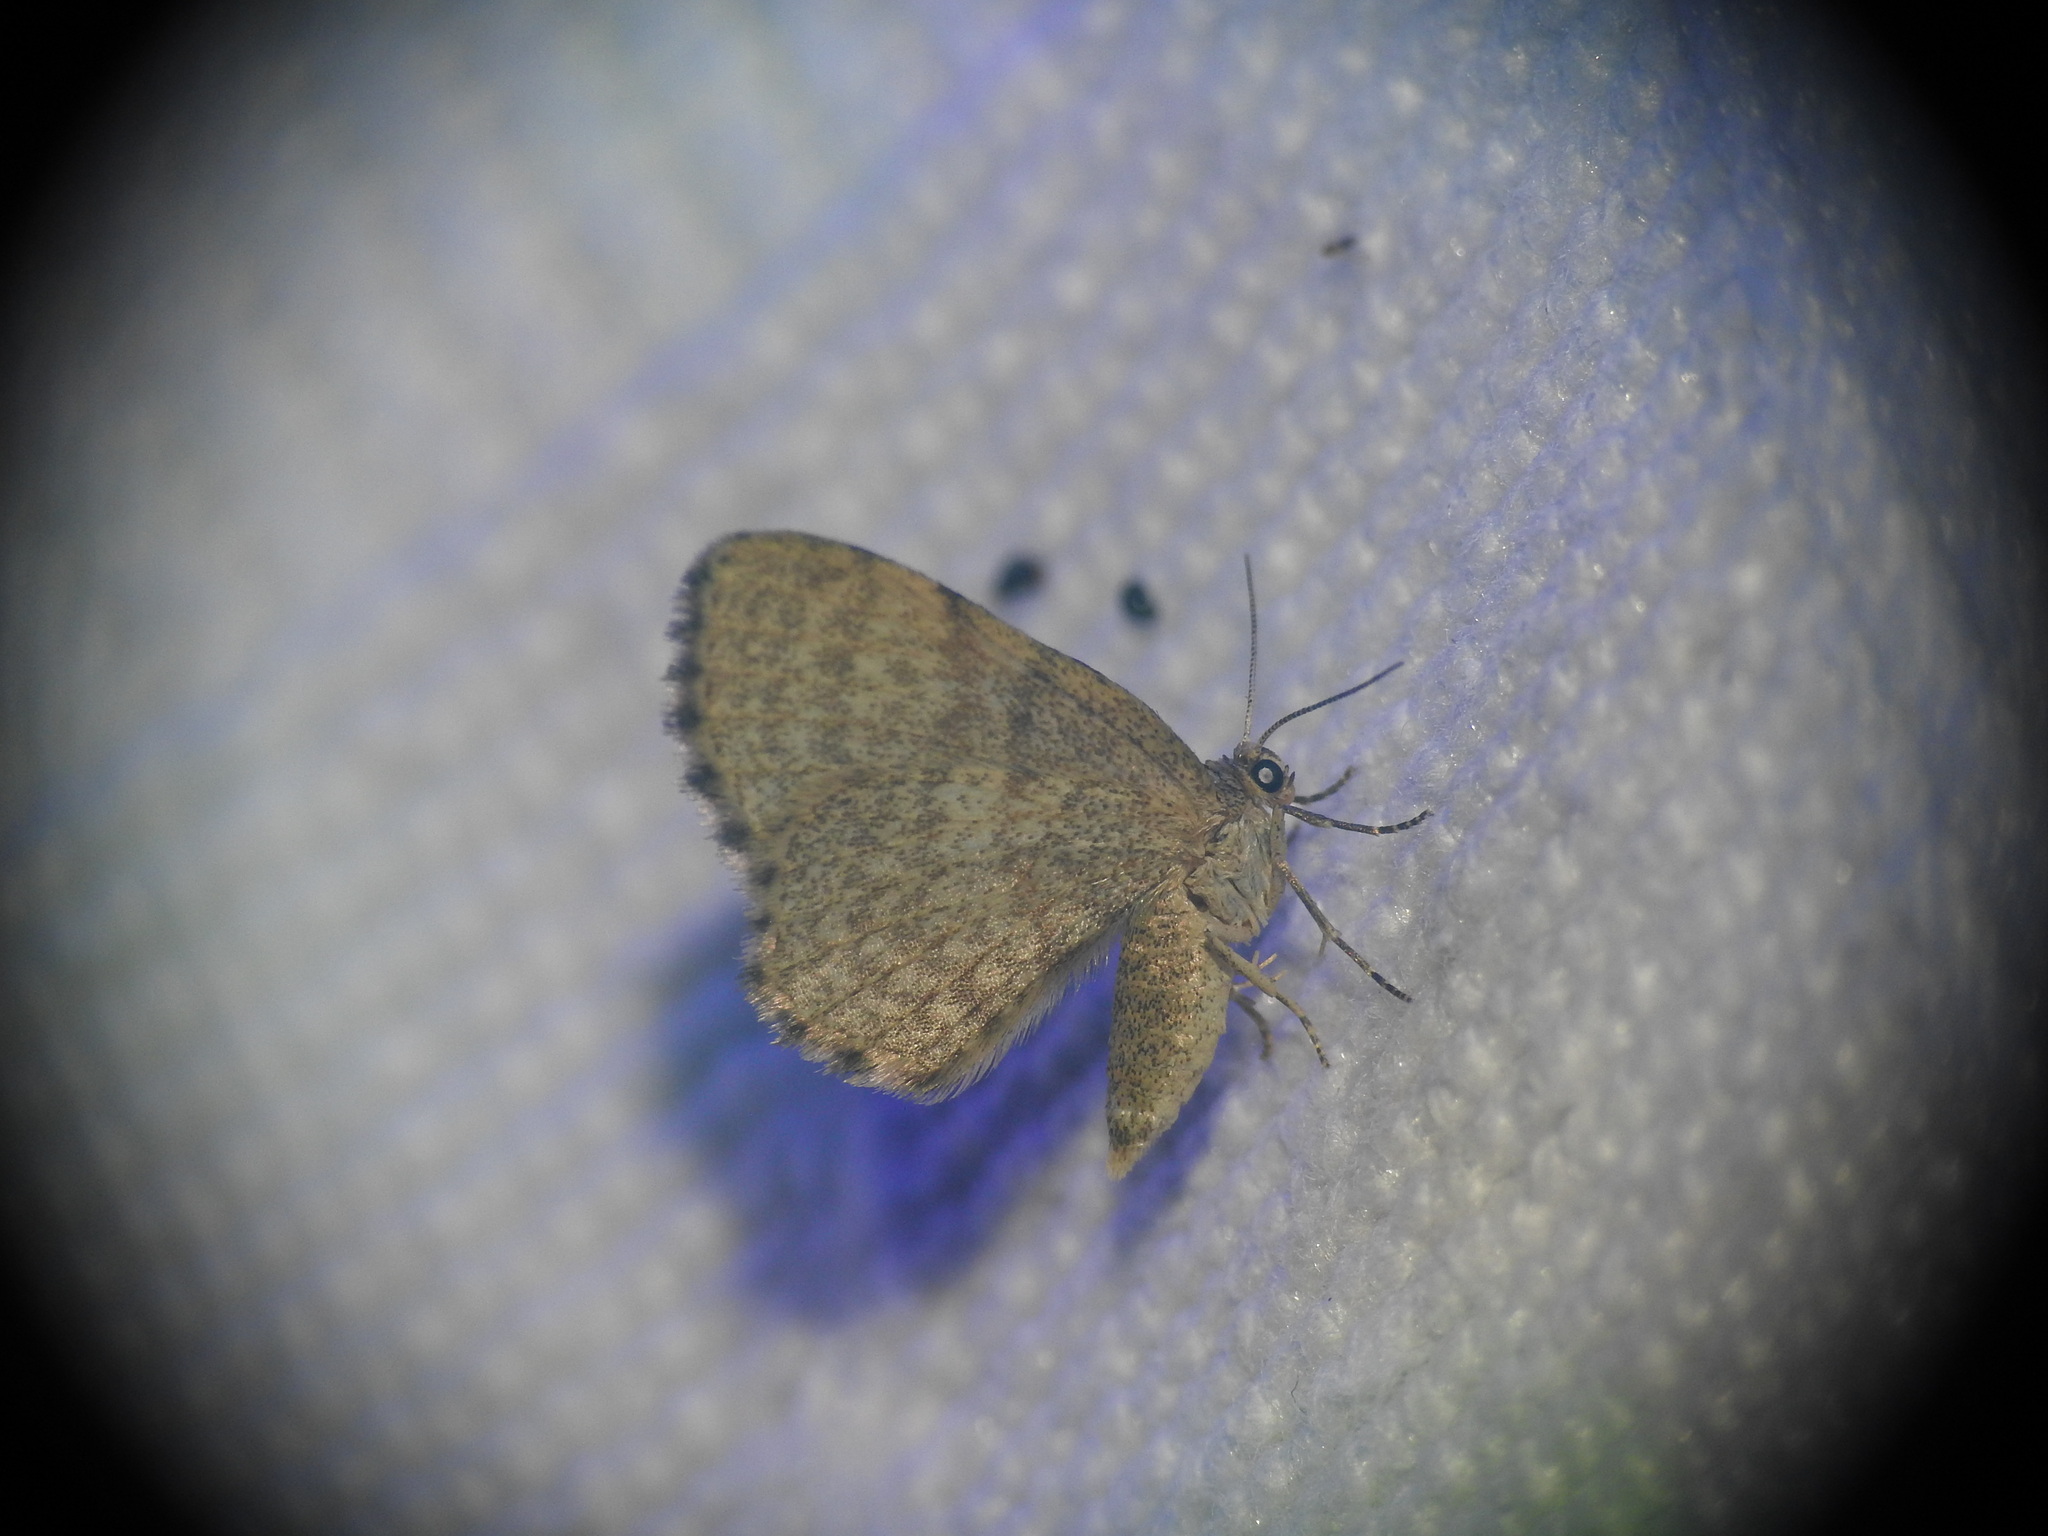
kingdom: Animalia
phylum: Arthropoda
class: Insecta
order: Lepidoptera
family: Geometridae
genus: Euchoeca
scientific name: Euchoeca nebulata
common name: Dingy shell
